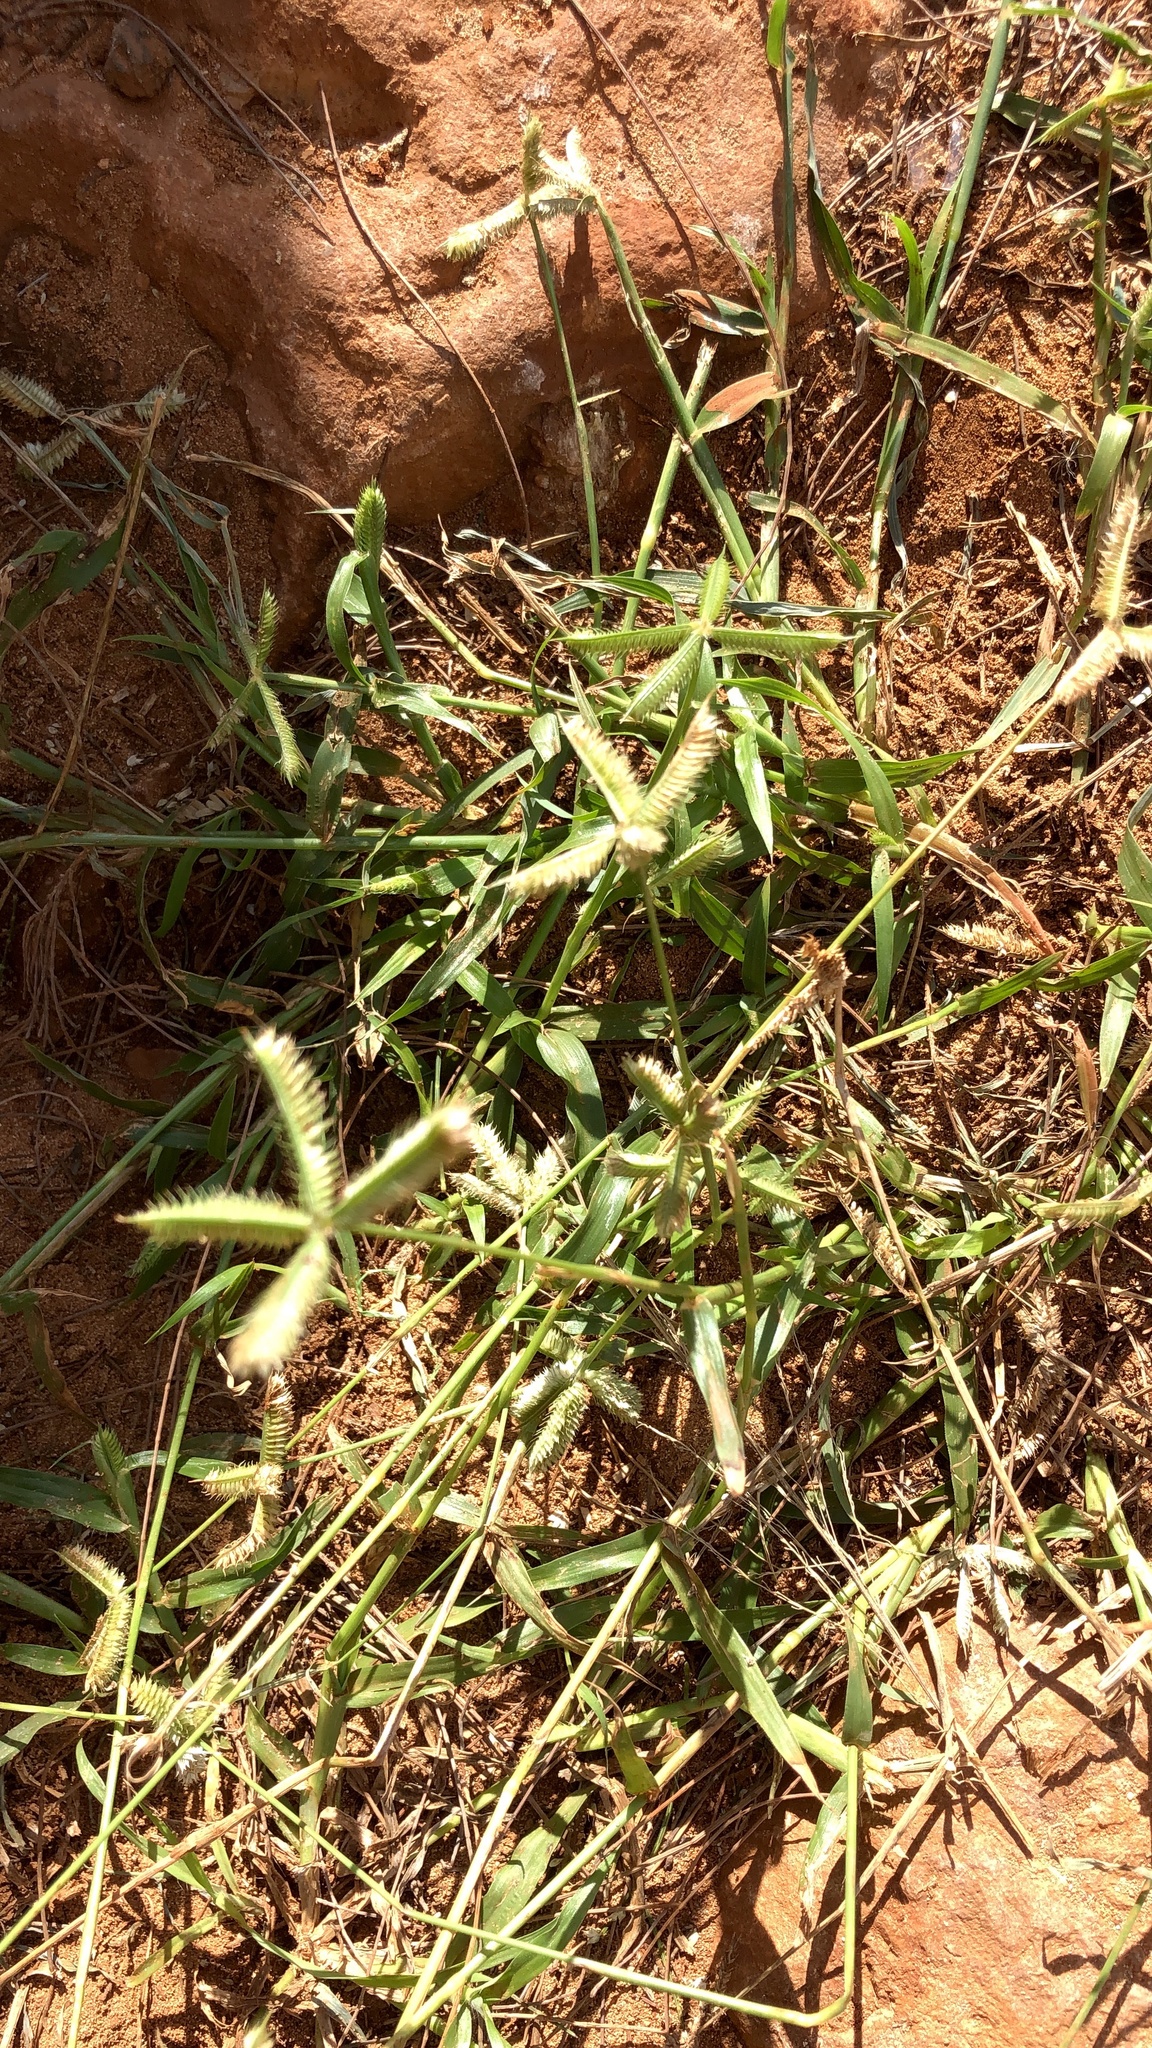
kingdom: Plantae
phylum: Tracheophyta
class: Liliopsida
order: Poales
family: Poaceae
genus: Dactyloctenium
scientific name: Dactyloctenium aegyptium
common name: Egyptian grass
